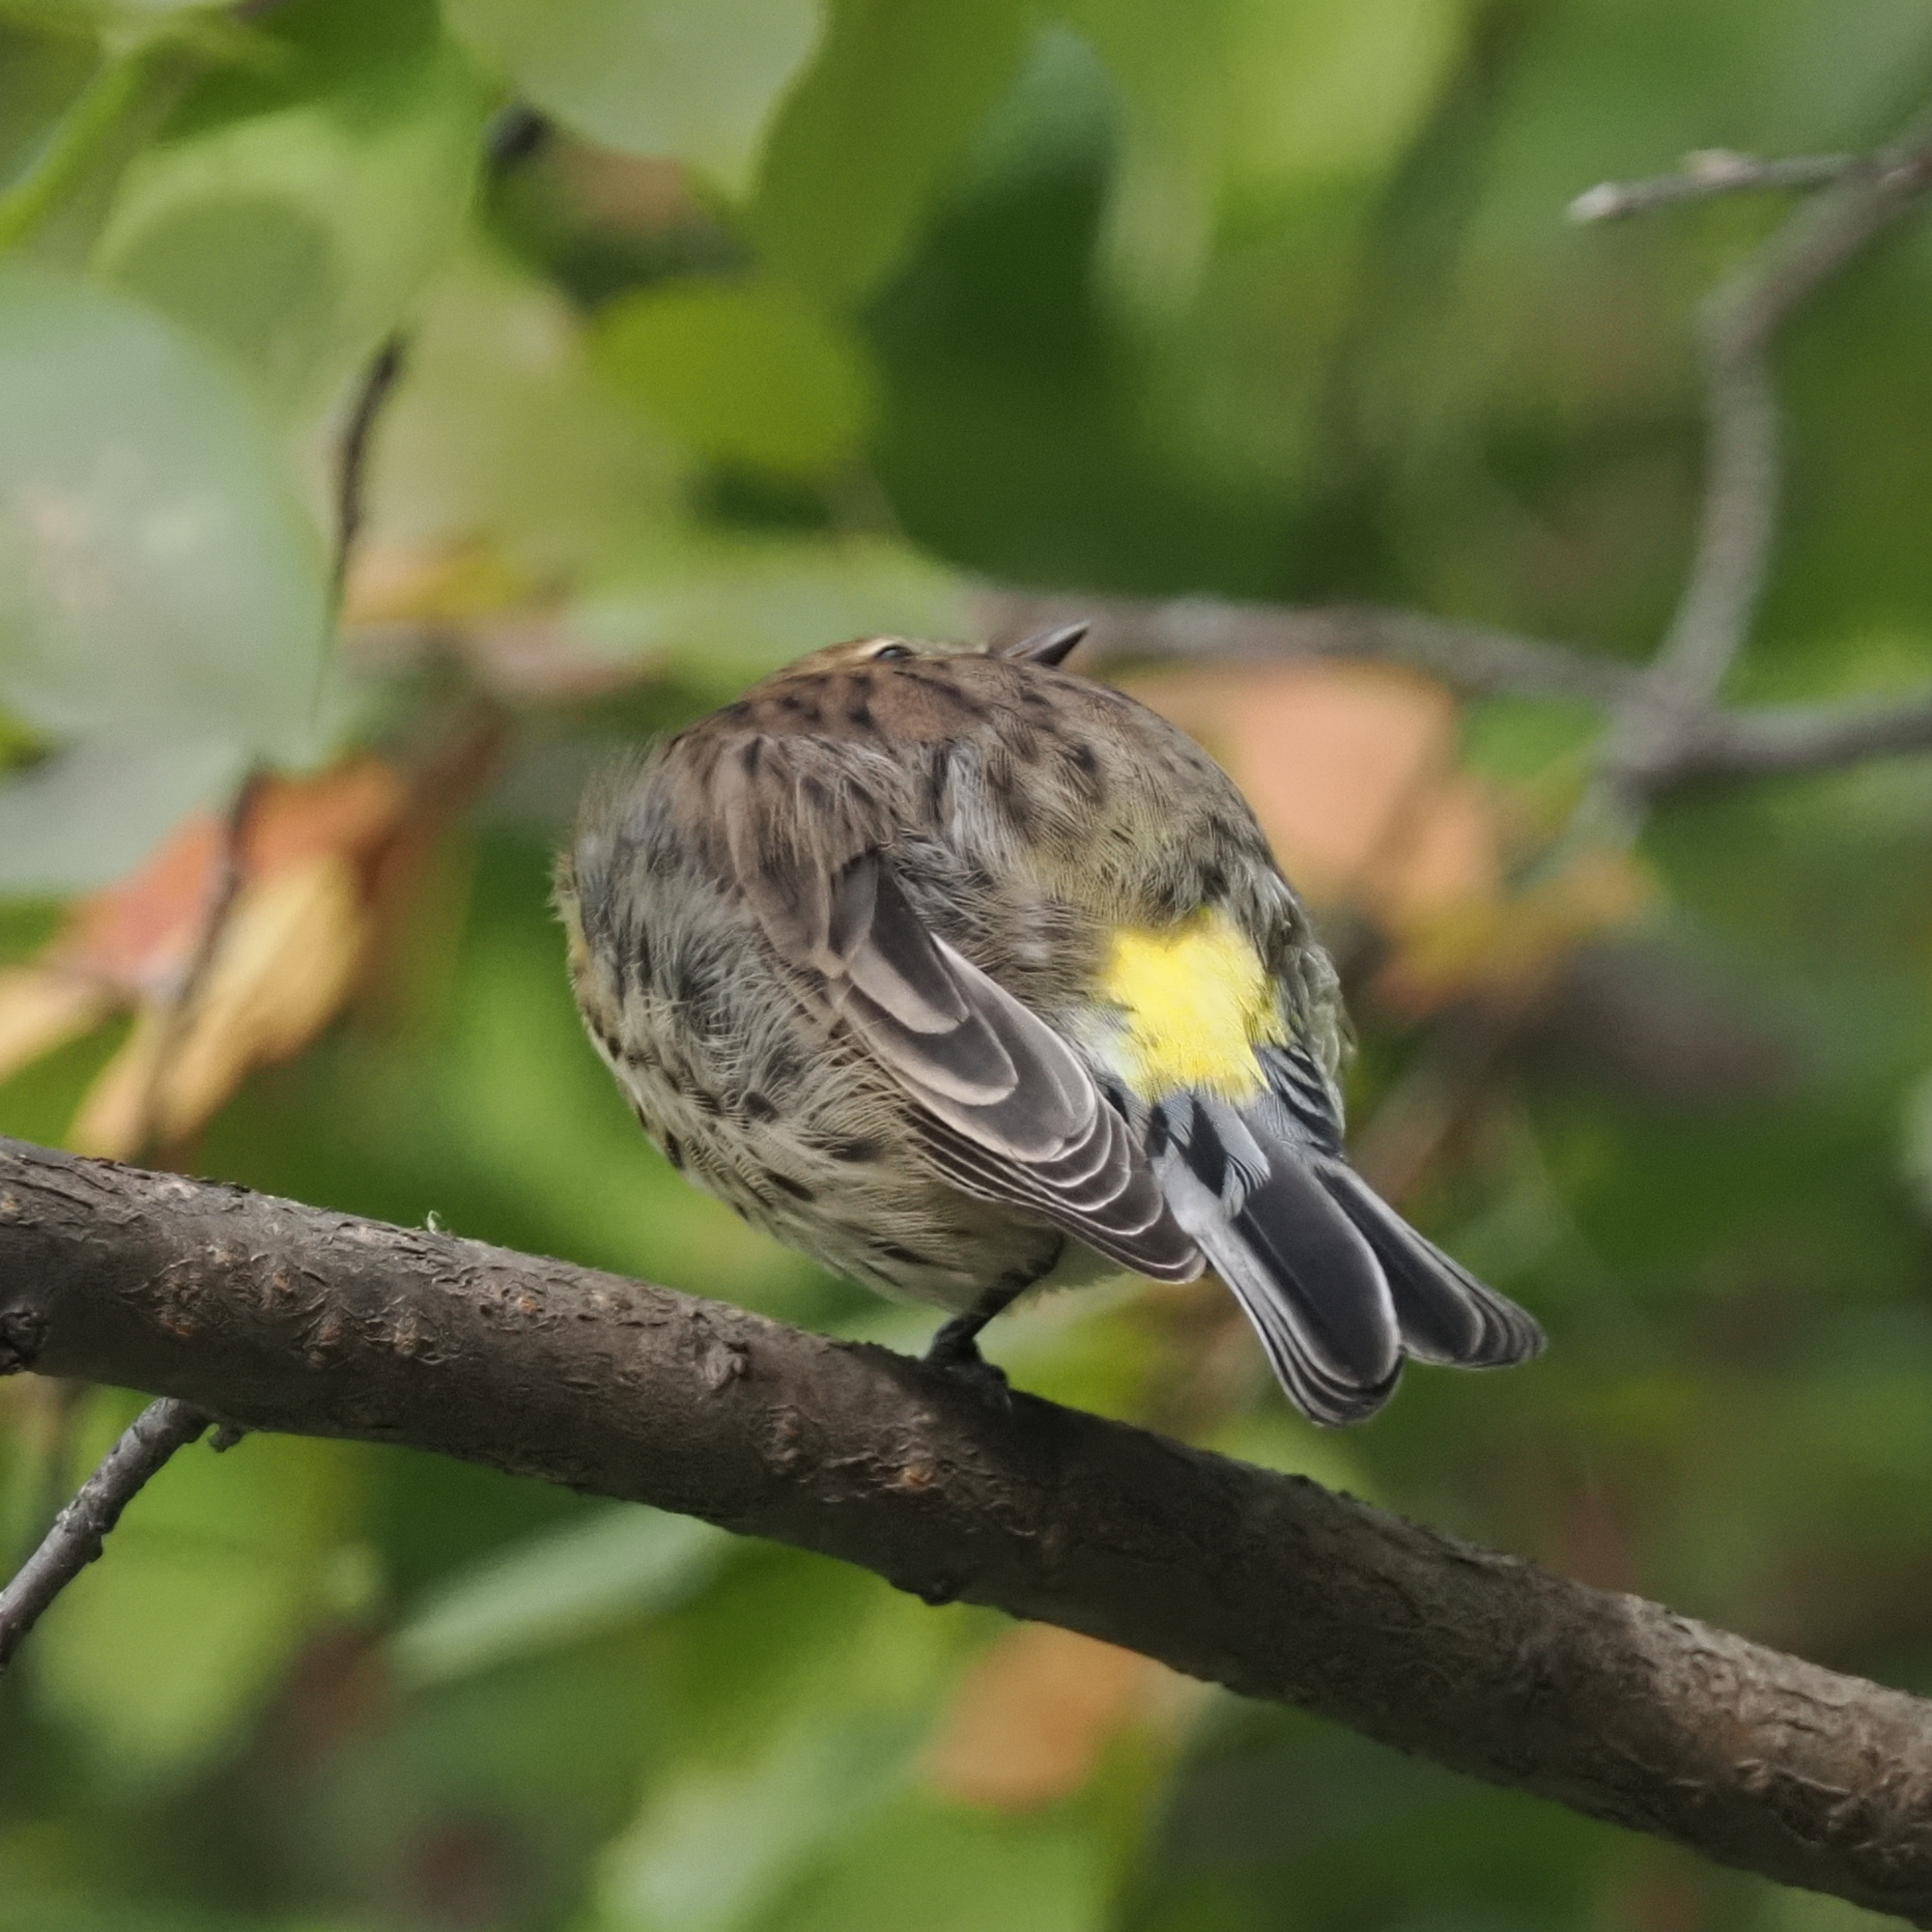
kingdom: Animalia
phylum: Chordata
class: Aves
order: Passeriformes
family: Parulidae
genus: Setophaga
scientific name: Setophaga coronata
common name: Myrtle warbler
